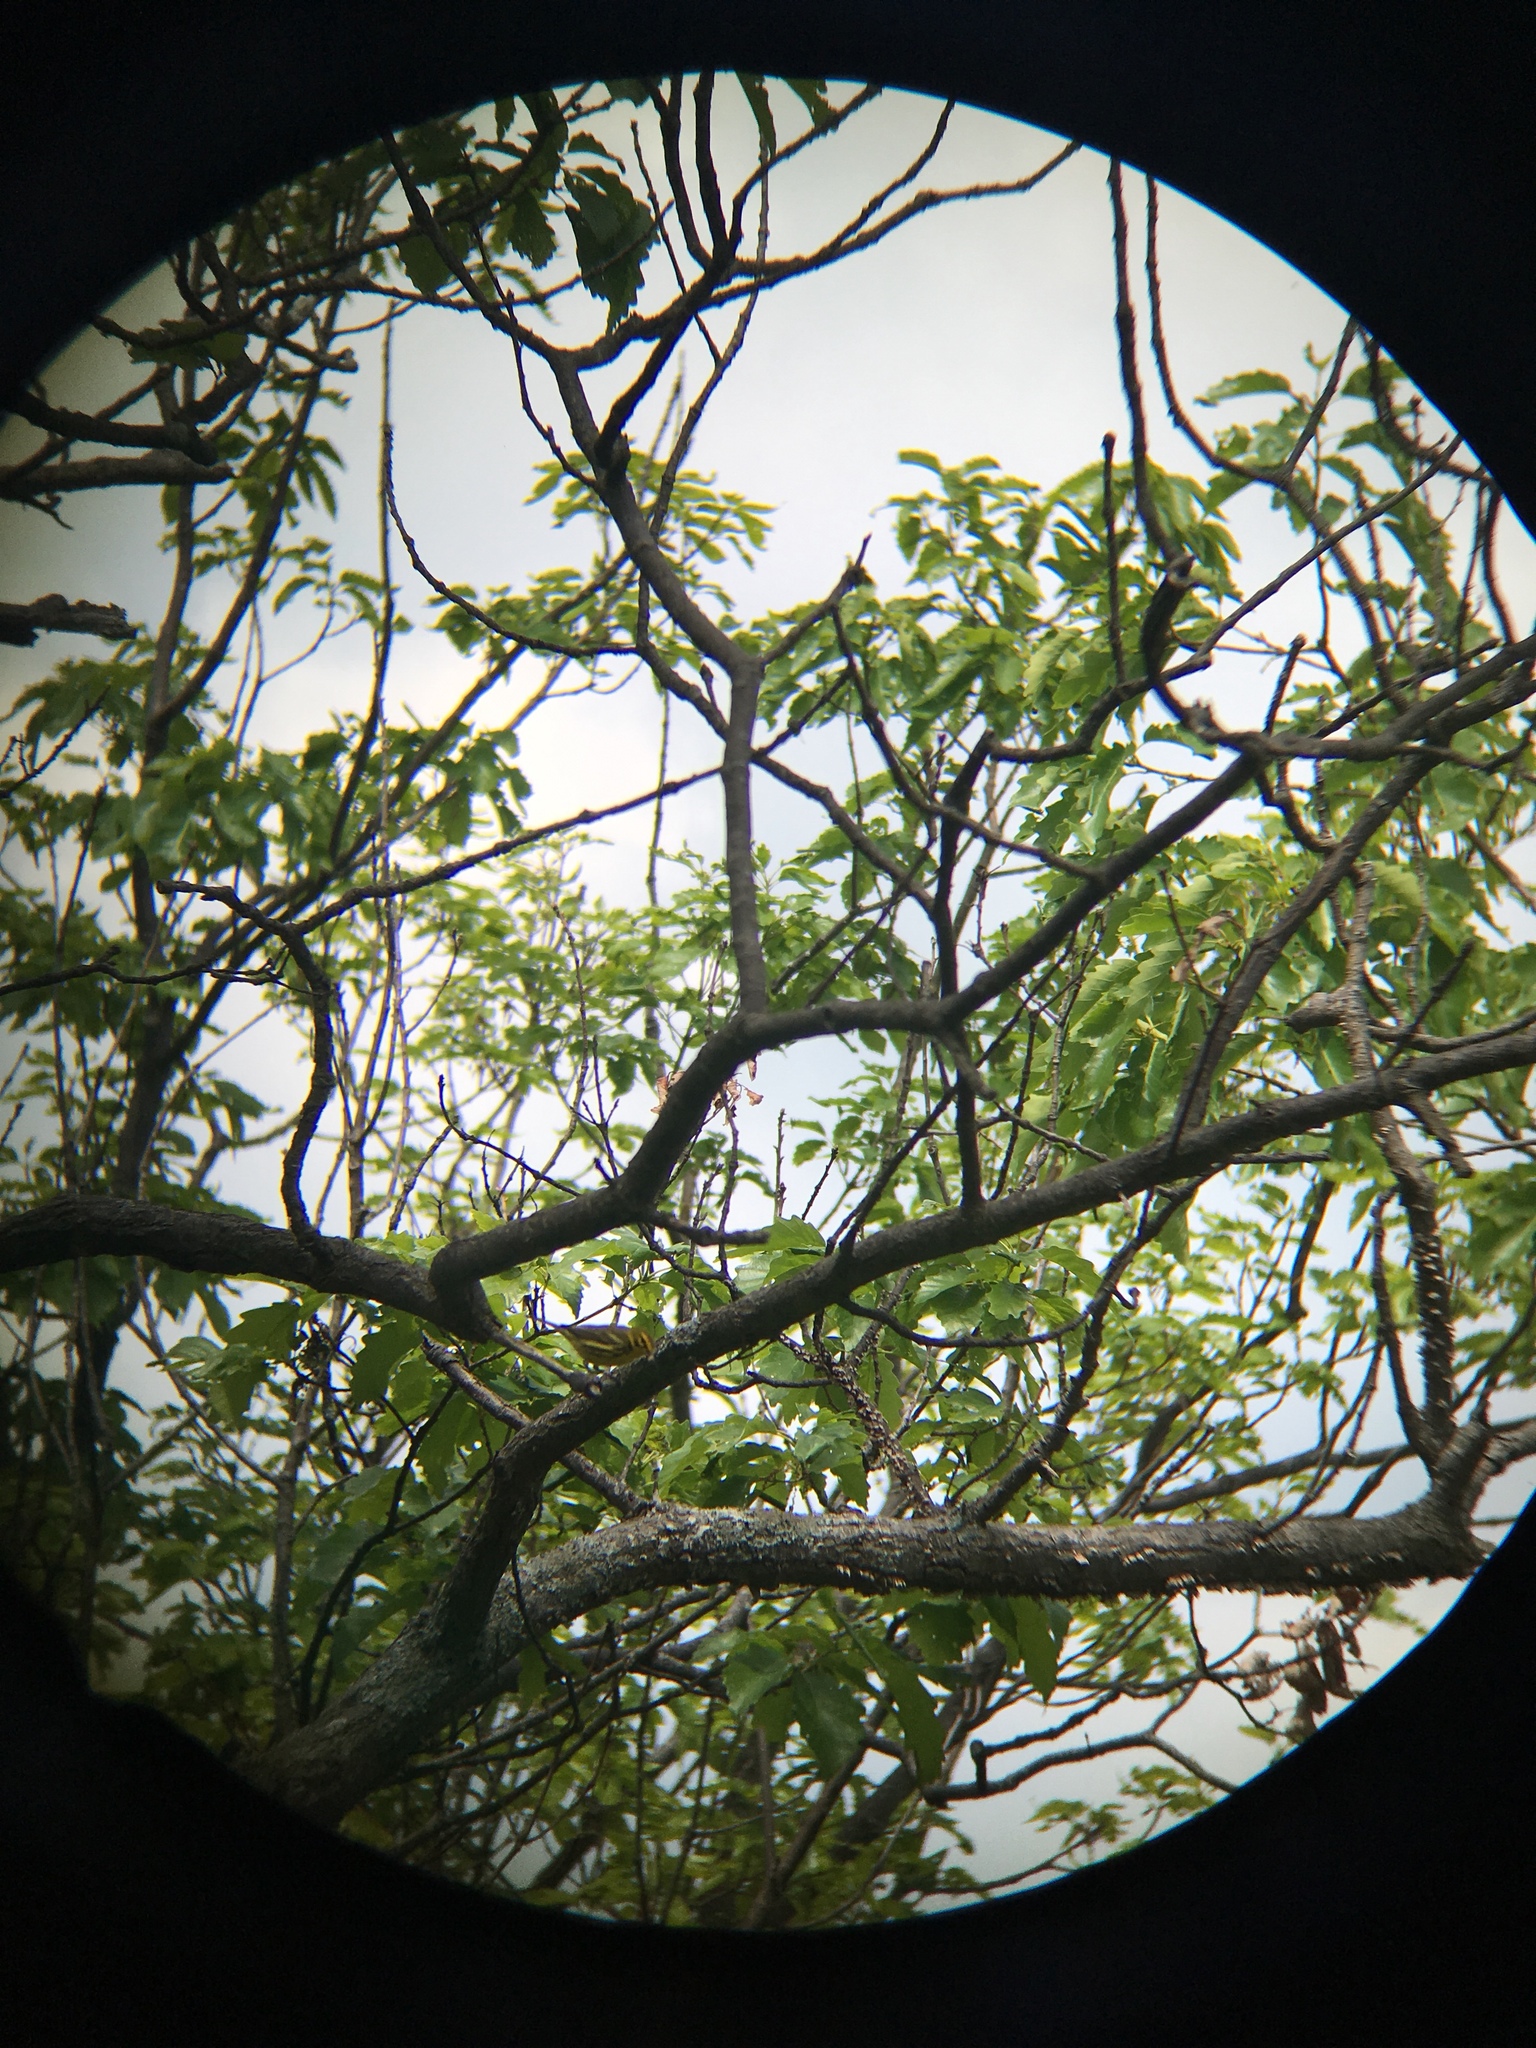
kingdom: Animalia
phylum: Chordata
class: Aves
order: Passeriformes
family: Parulidae
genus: Setophaga
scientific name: Setophaga discolor
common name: Prairie warbler
